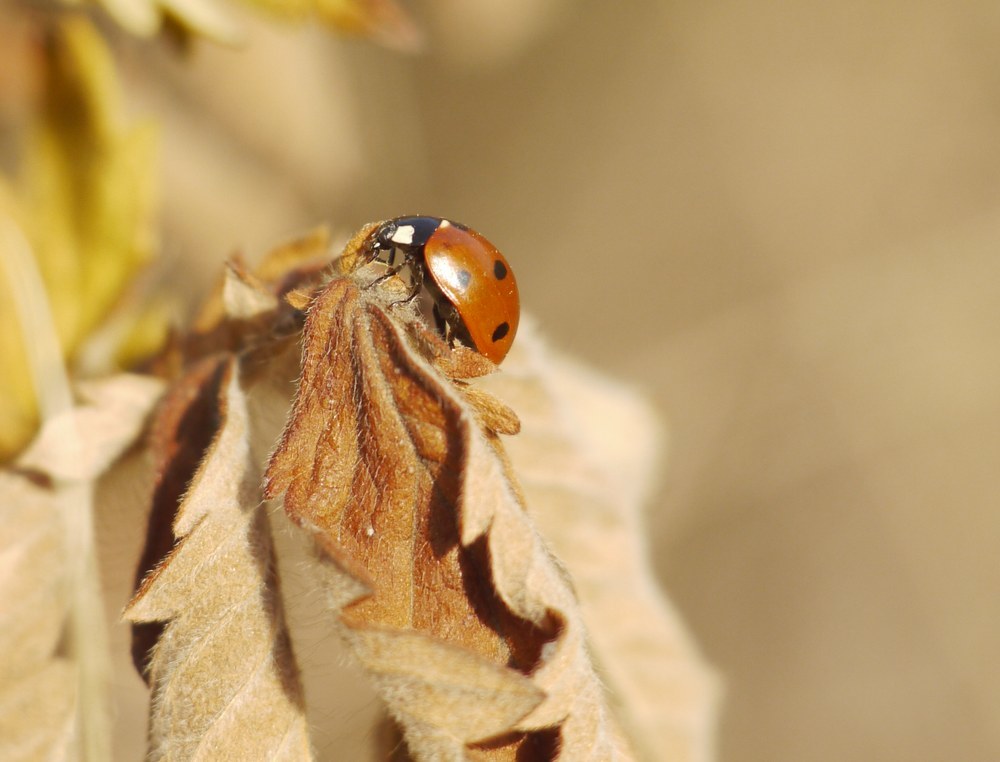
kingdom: Animalia
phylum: Arthropoda
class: Insecta
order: Coleoptera
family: Coccinellidae
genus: Coccinella
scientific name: Coccinella septempunctata
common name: Sevenspotted lady beetle
